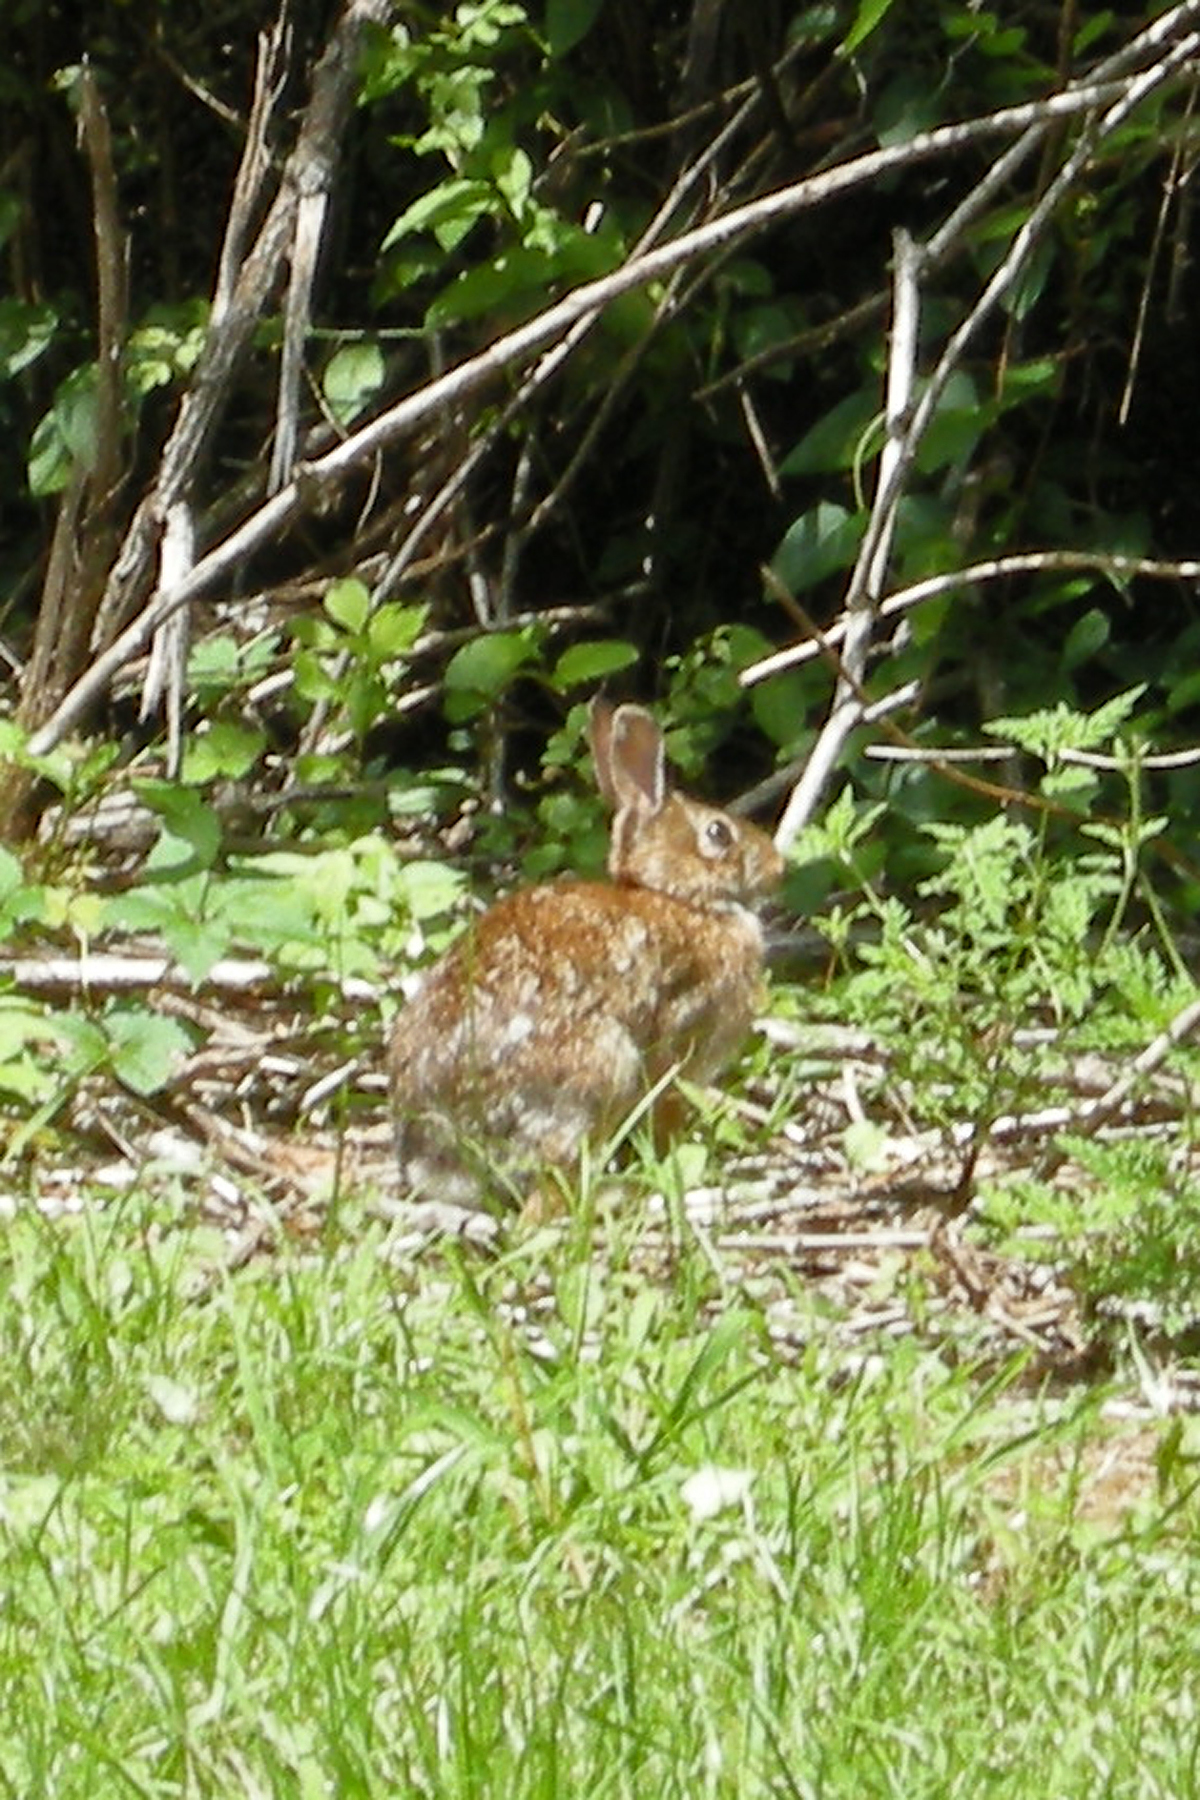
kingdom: Animalia
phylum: Chordata
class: Mammalia
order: Lagomorpha
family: Leporidae
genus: Sylvilagus
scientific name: Sylvilagus floridanus
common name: Eastern cottontail
